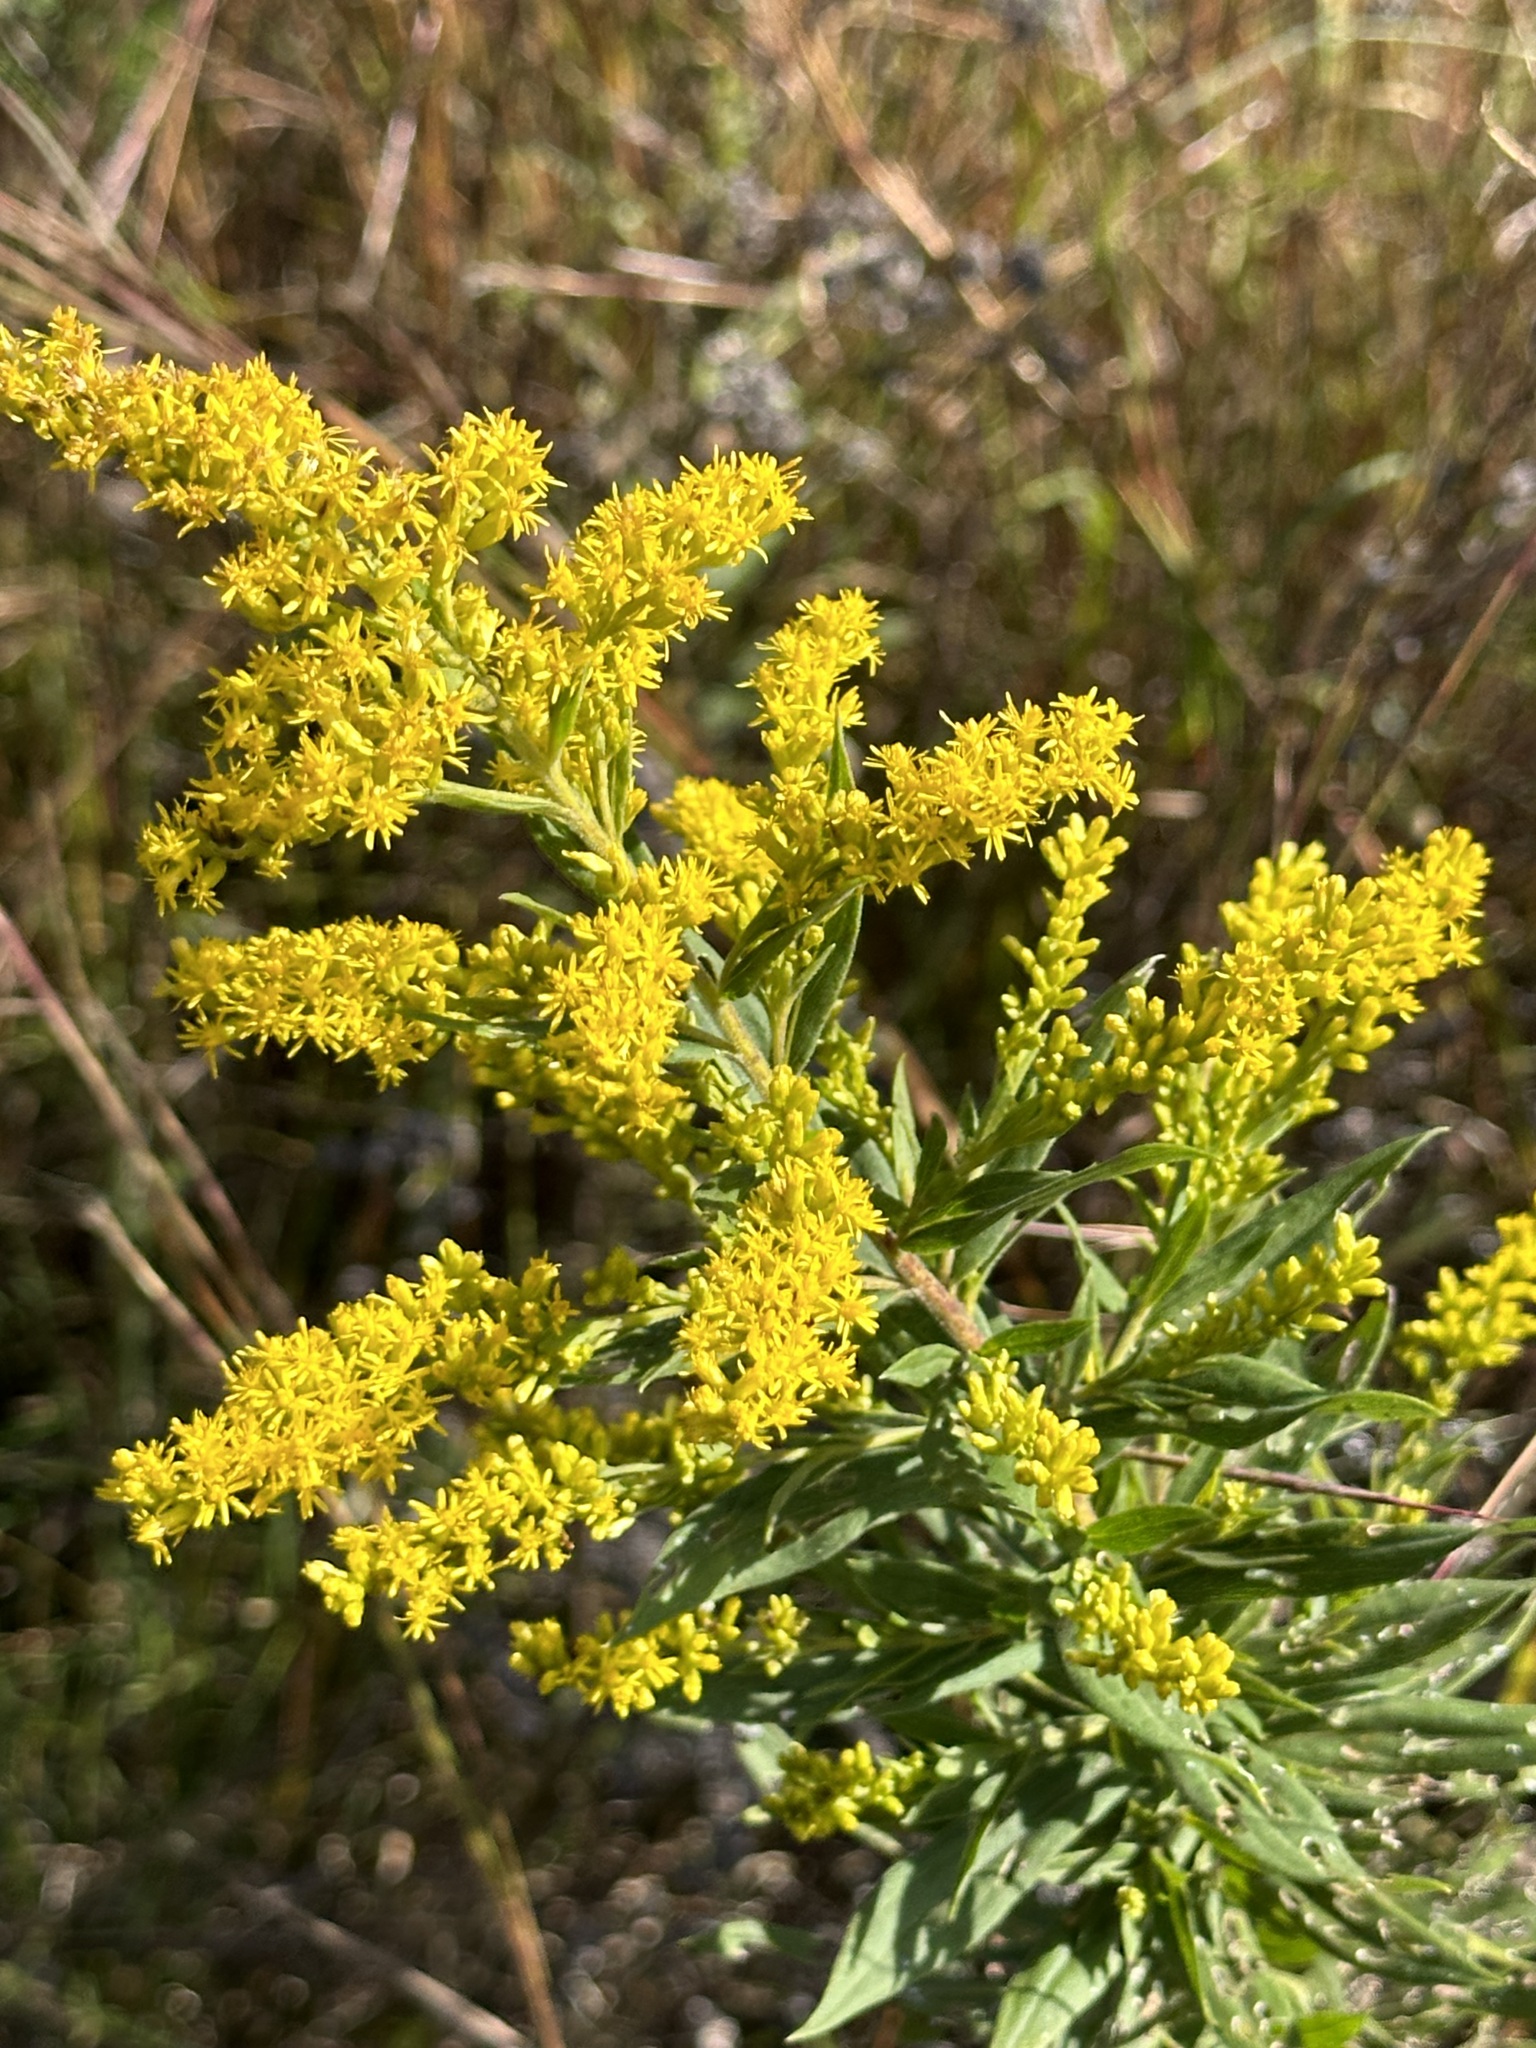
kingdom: Plantae
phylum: Tracheophyta
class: Magnoliopsida
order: Asterales
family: Asteraceae
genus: Solidago
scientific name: Solidago altissima
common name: Late goldenrod
